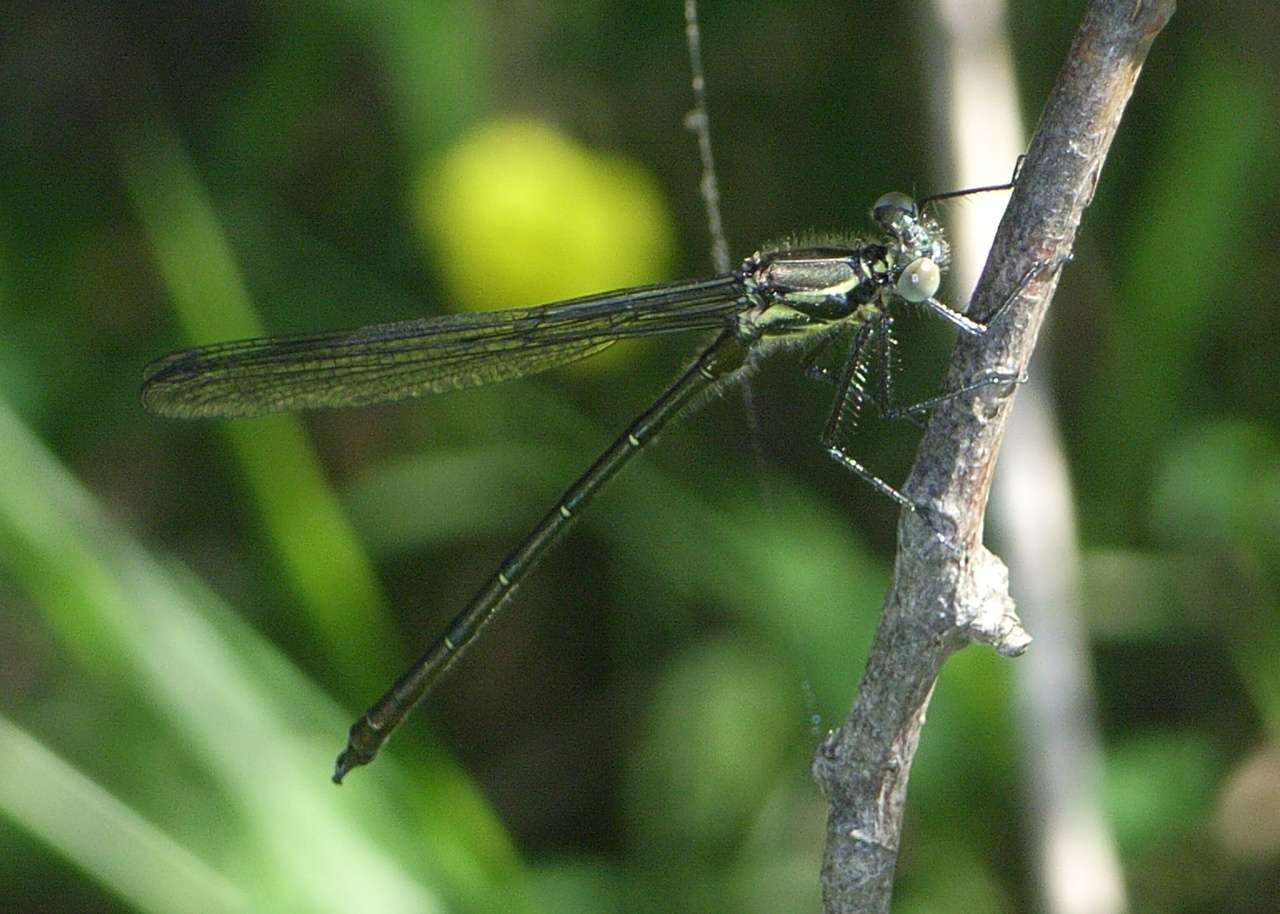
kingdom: Animalia
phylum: Arthropoda
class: Insecta
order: Odonata
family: Argiolestidae
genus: Austroargiolestes
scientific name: Austroargiolestes icteromelas
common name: Common flatwing
